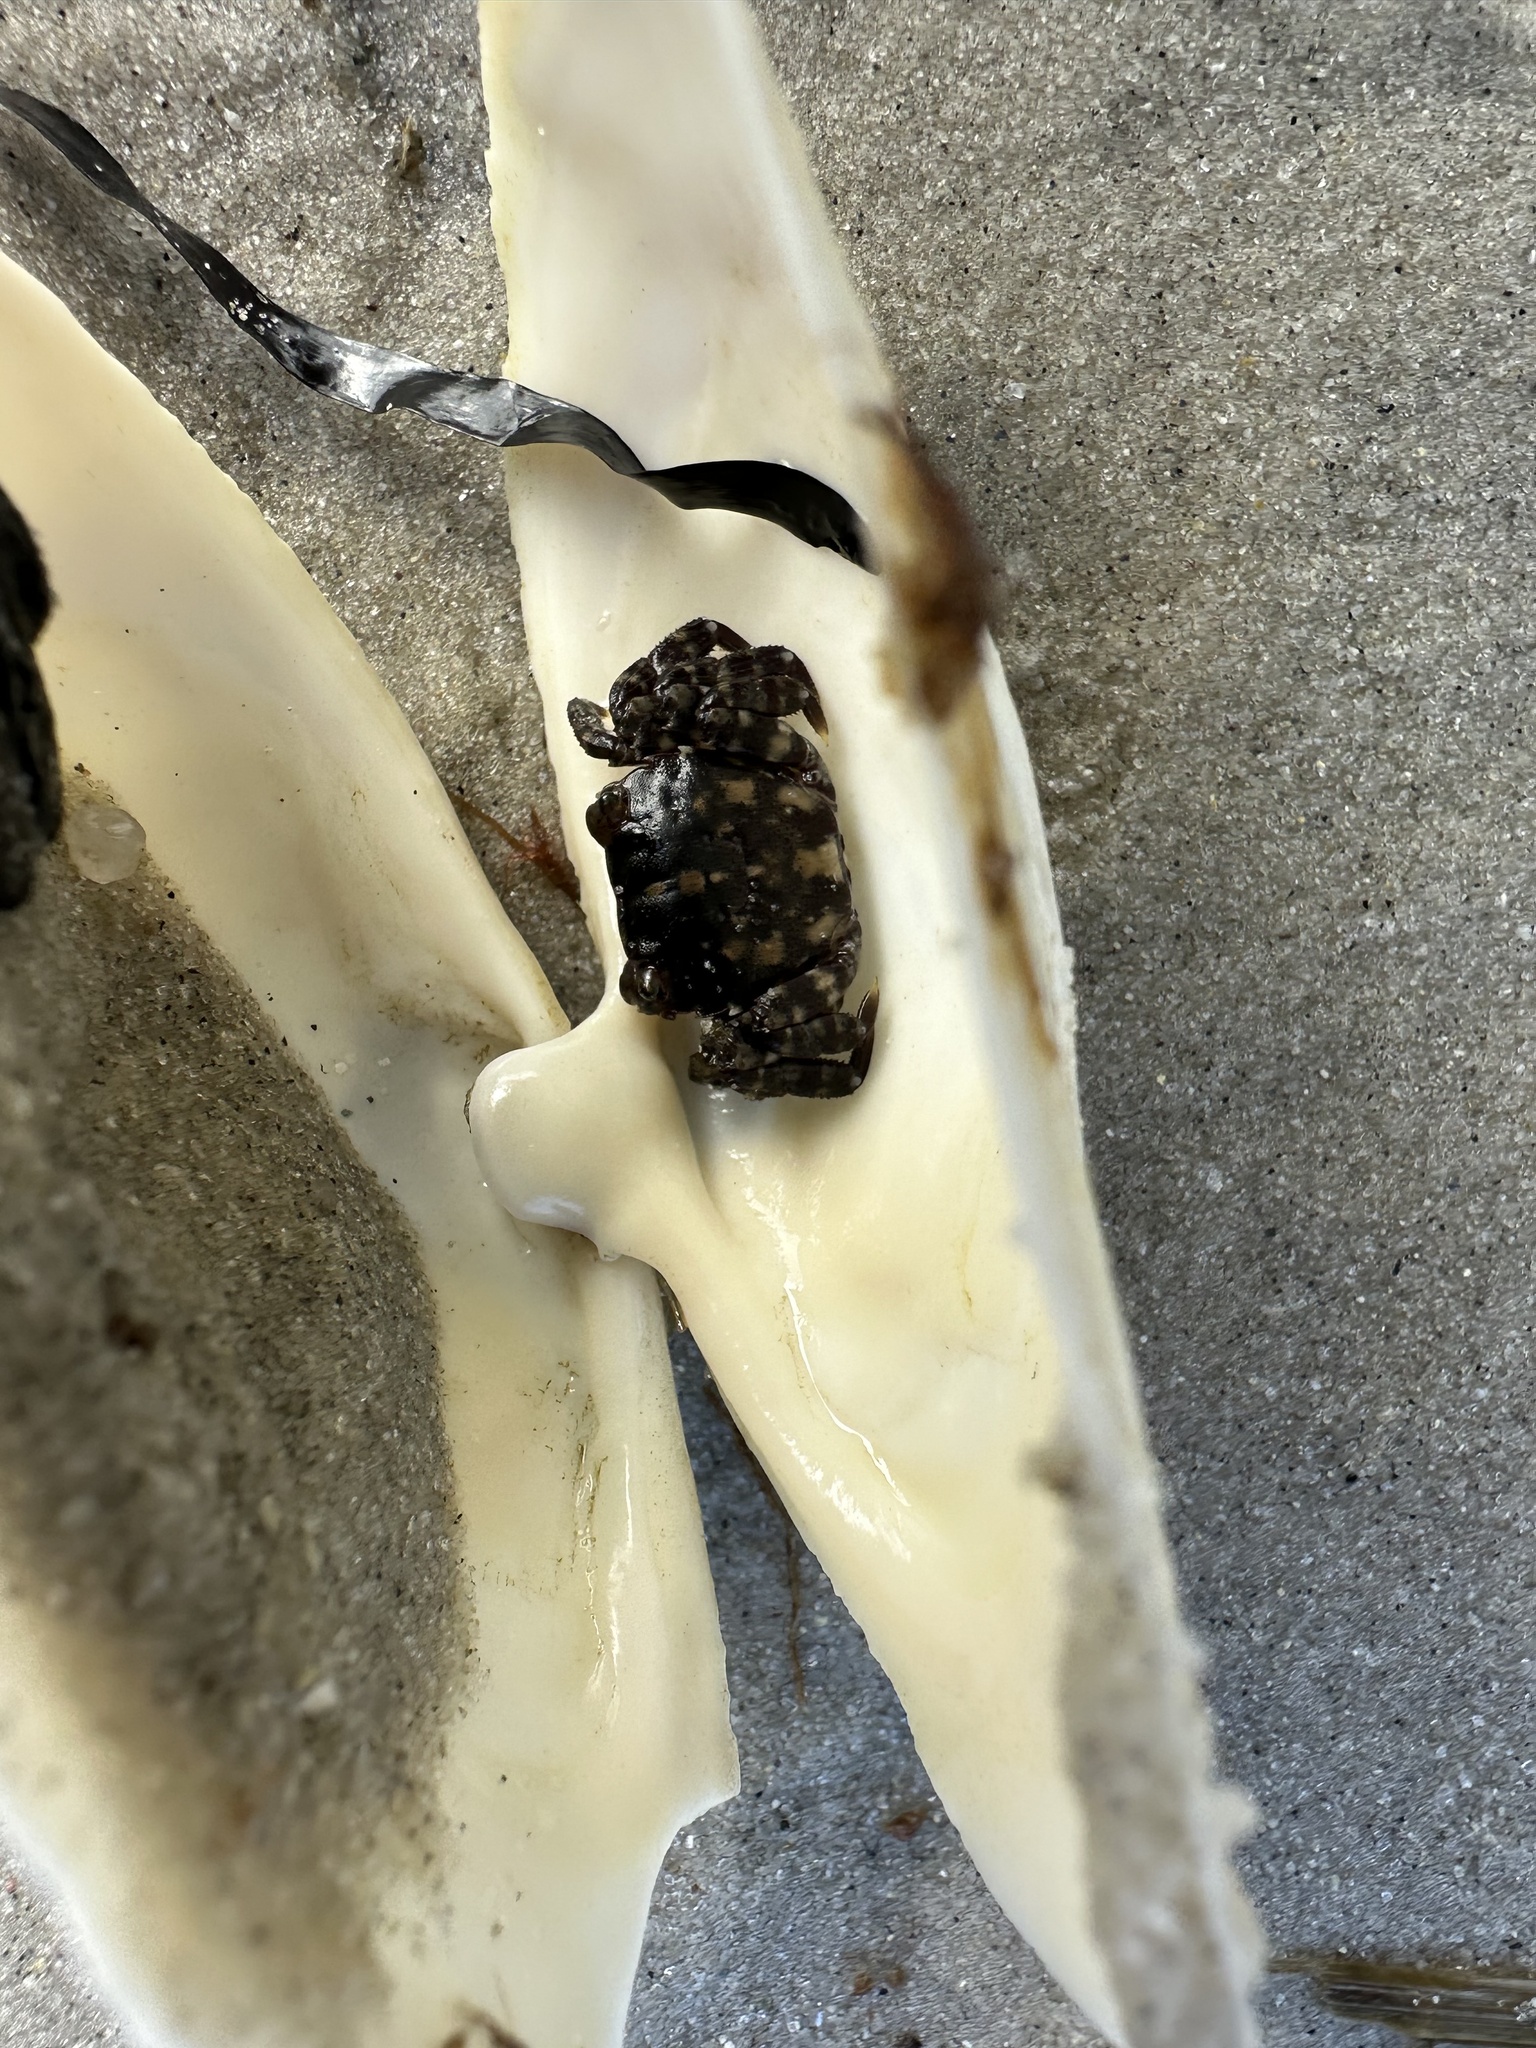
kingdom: Animalia
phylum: Arthropoda
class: Malacostraca
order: Decapoda
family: Varunidae
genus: Hemigrapsus
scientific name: Hemigrapsus sanguineus
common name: Asian shore crab
